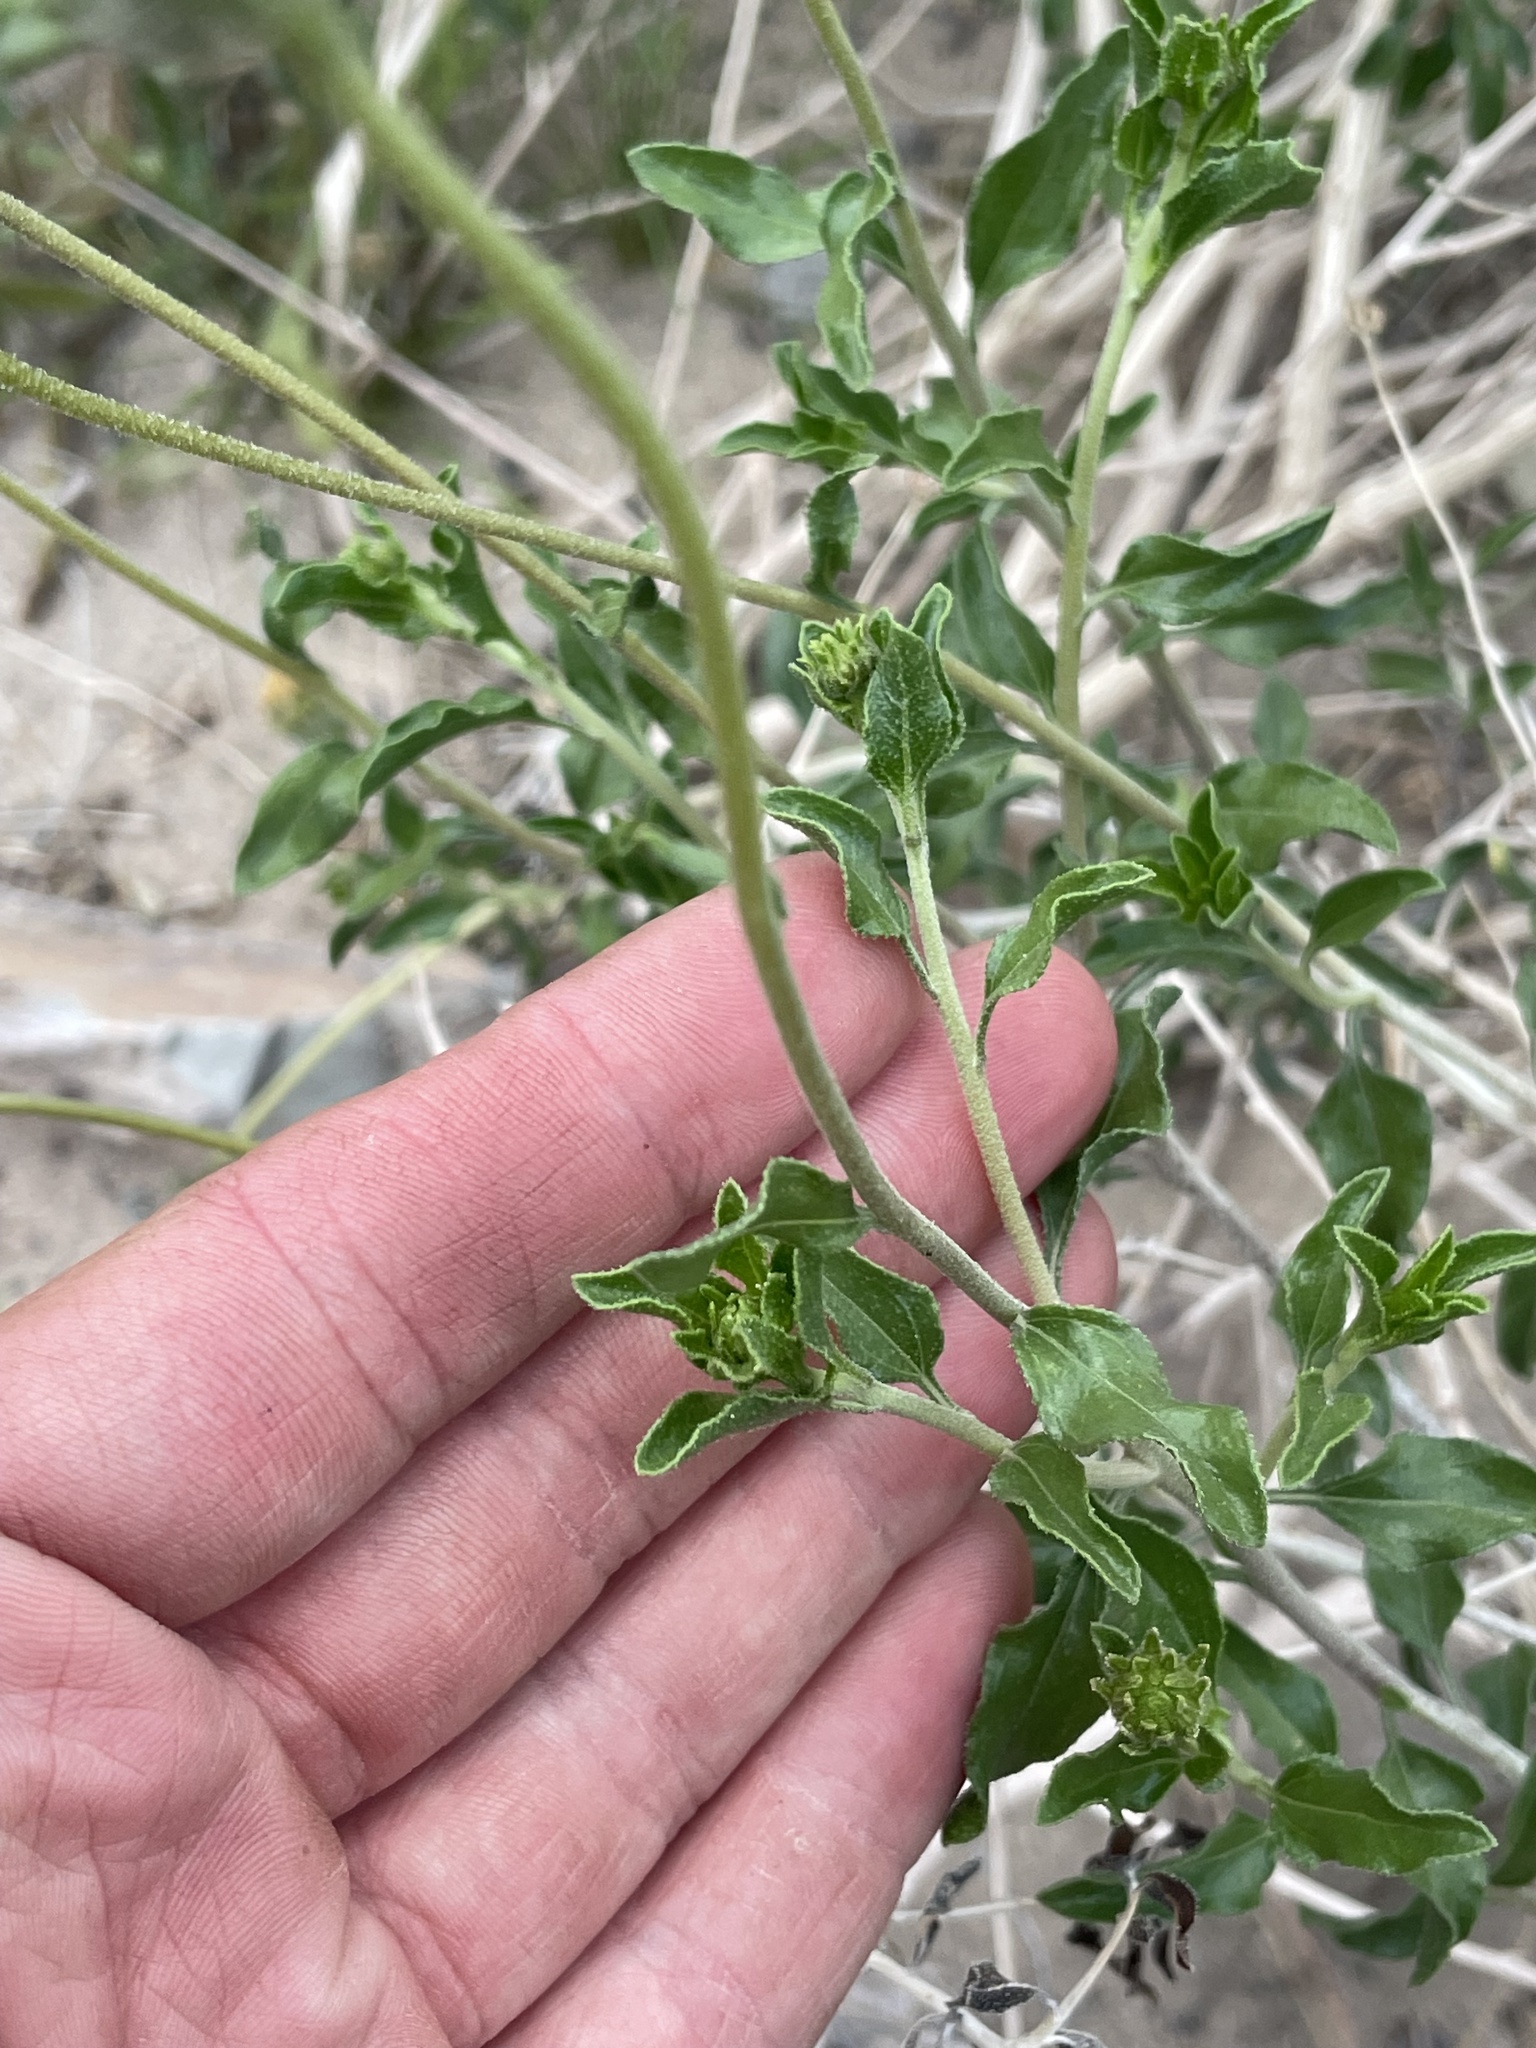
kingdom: Plantae
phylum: Tracheophyta
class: Magnoliopsida
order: Asterales
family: Asteraceae
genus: Encelia
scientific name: Encelia frutescens
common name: Bush encelia
